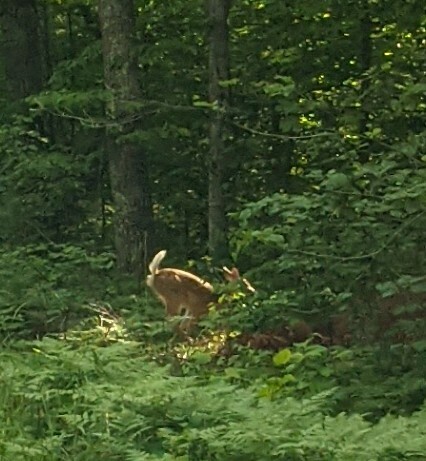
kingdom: Animalia
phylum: Chordata
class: Mammalia
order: Artiodactyla
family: Cervidae
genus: Odocoileus
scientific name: Odocoileus virginianus
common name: White-tailed deer
